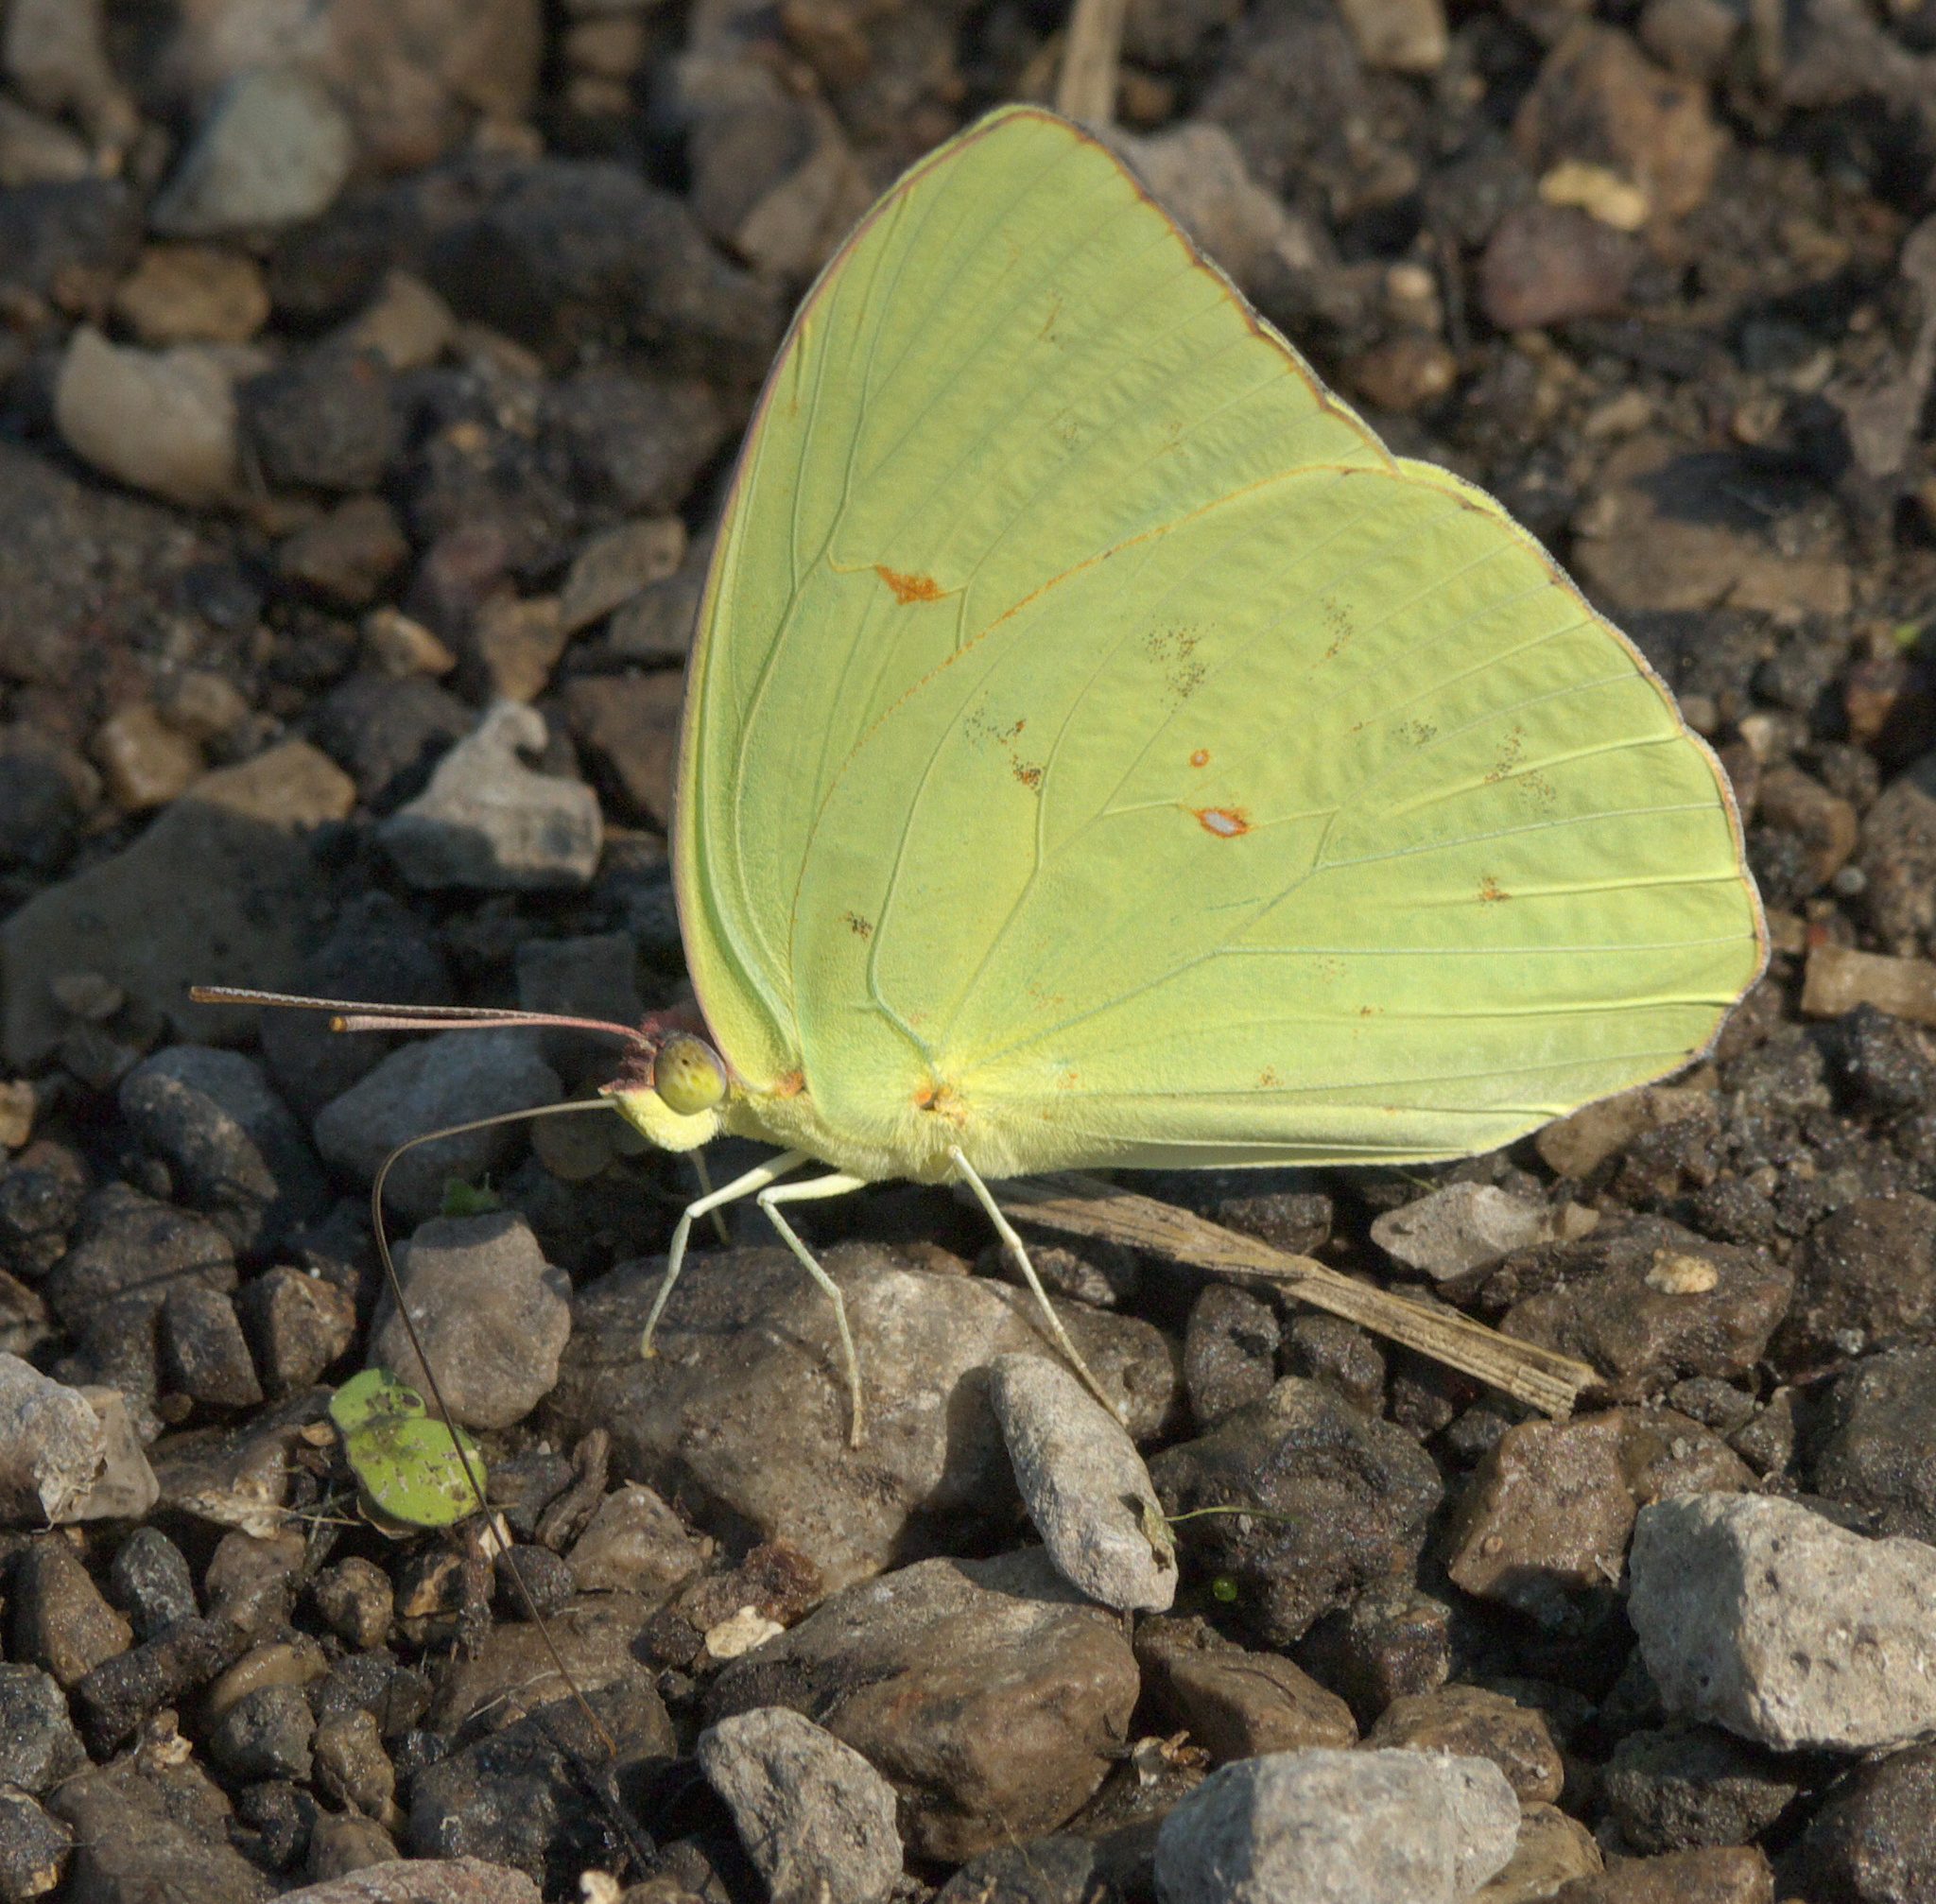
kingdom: Animalia
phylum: Arthropoda
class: Insecta
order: Lepidoptera
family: Pieridae
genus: Phoebis
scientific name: Phoebis sennae
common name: Cloudless sulphur
